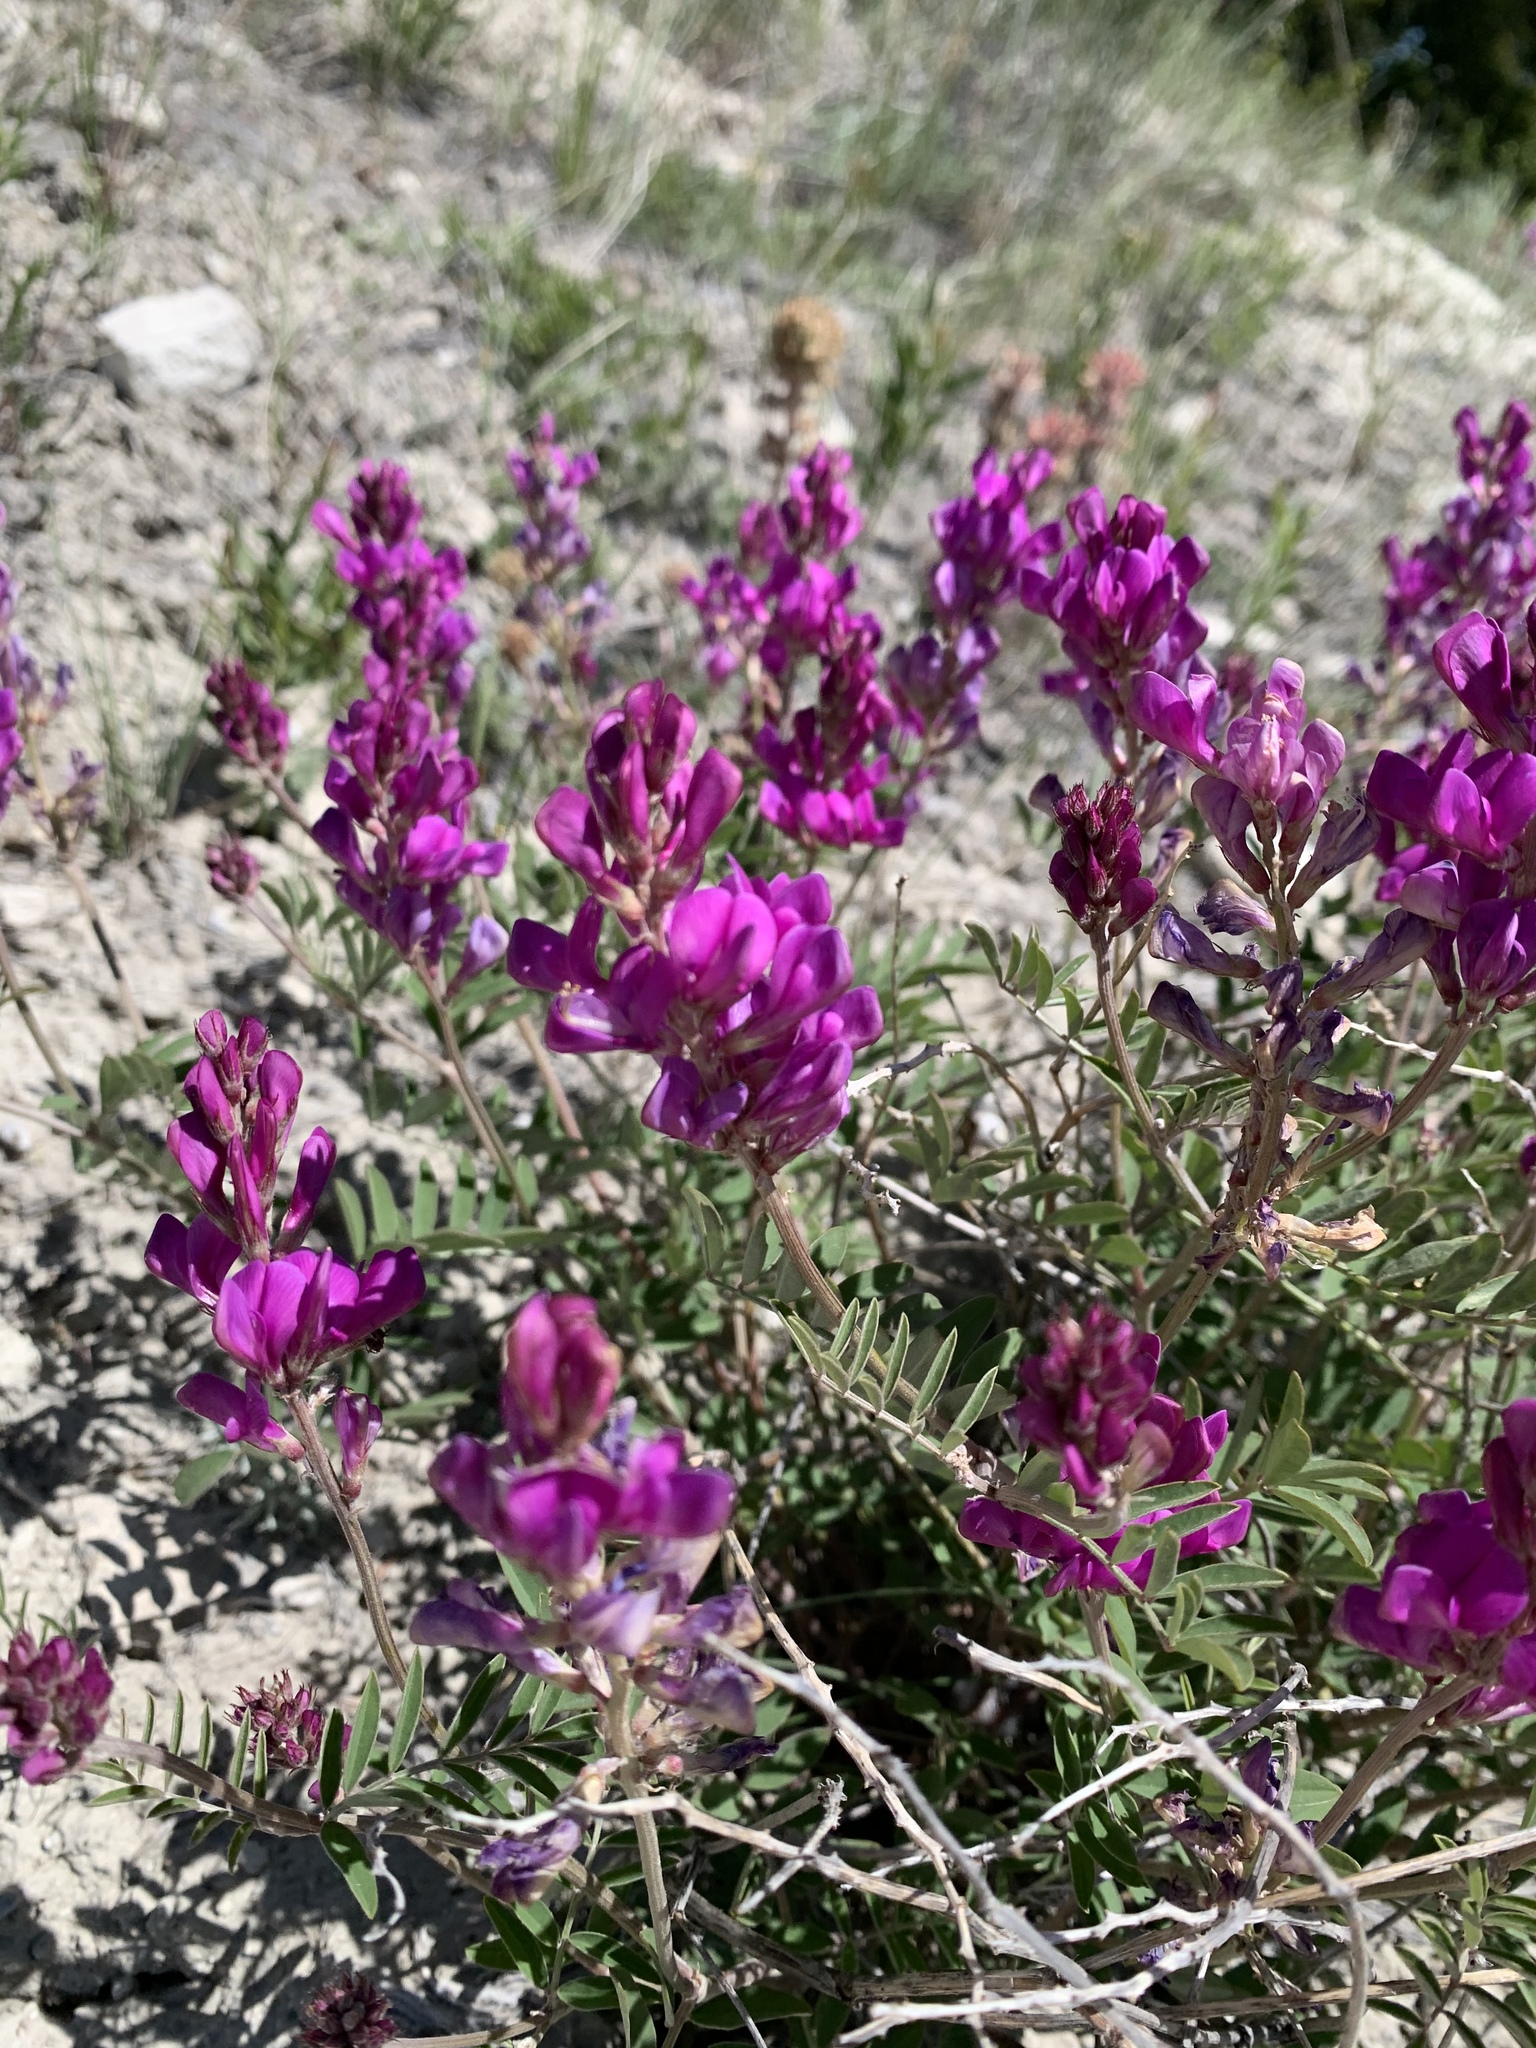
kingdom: Plantae
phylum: Tracheophyta
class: Magnoliopsida
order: Fabales
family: Fabaceae
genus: Hedysarum
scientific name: Hedysarum boreale
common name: Northern sweet-vetch
